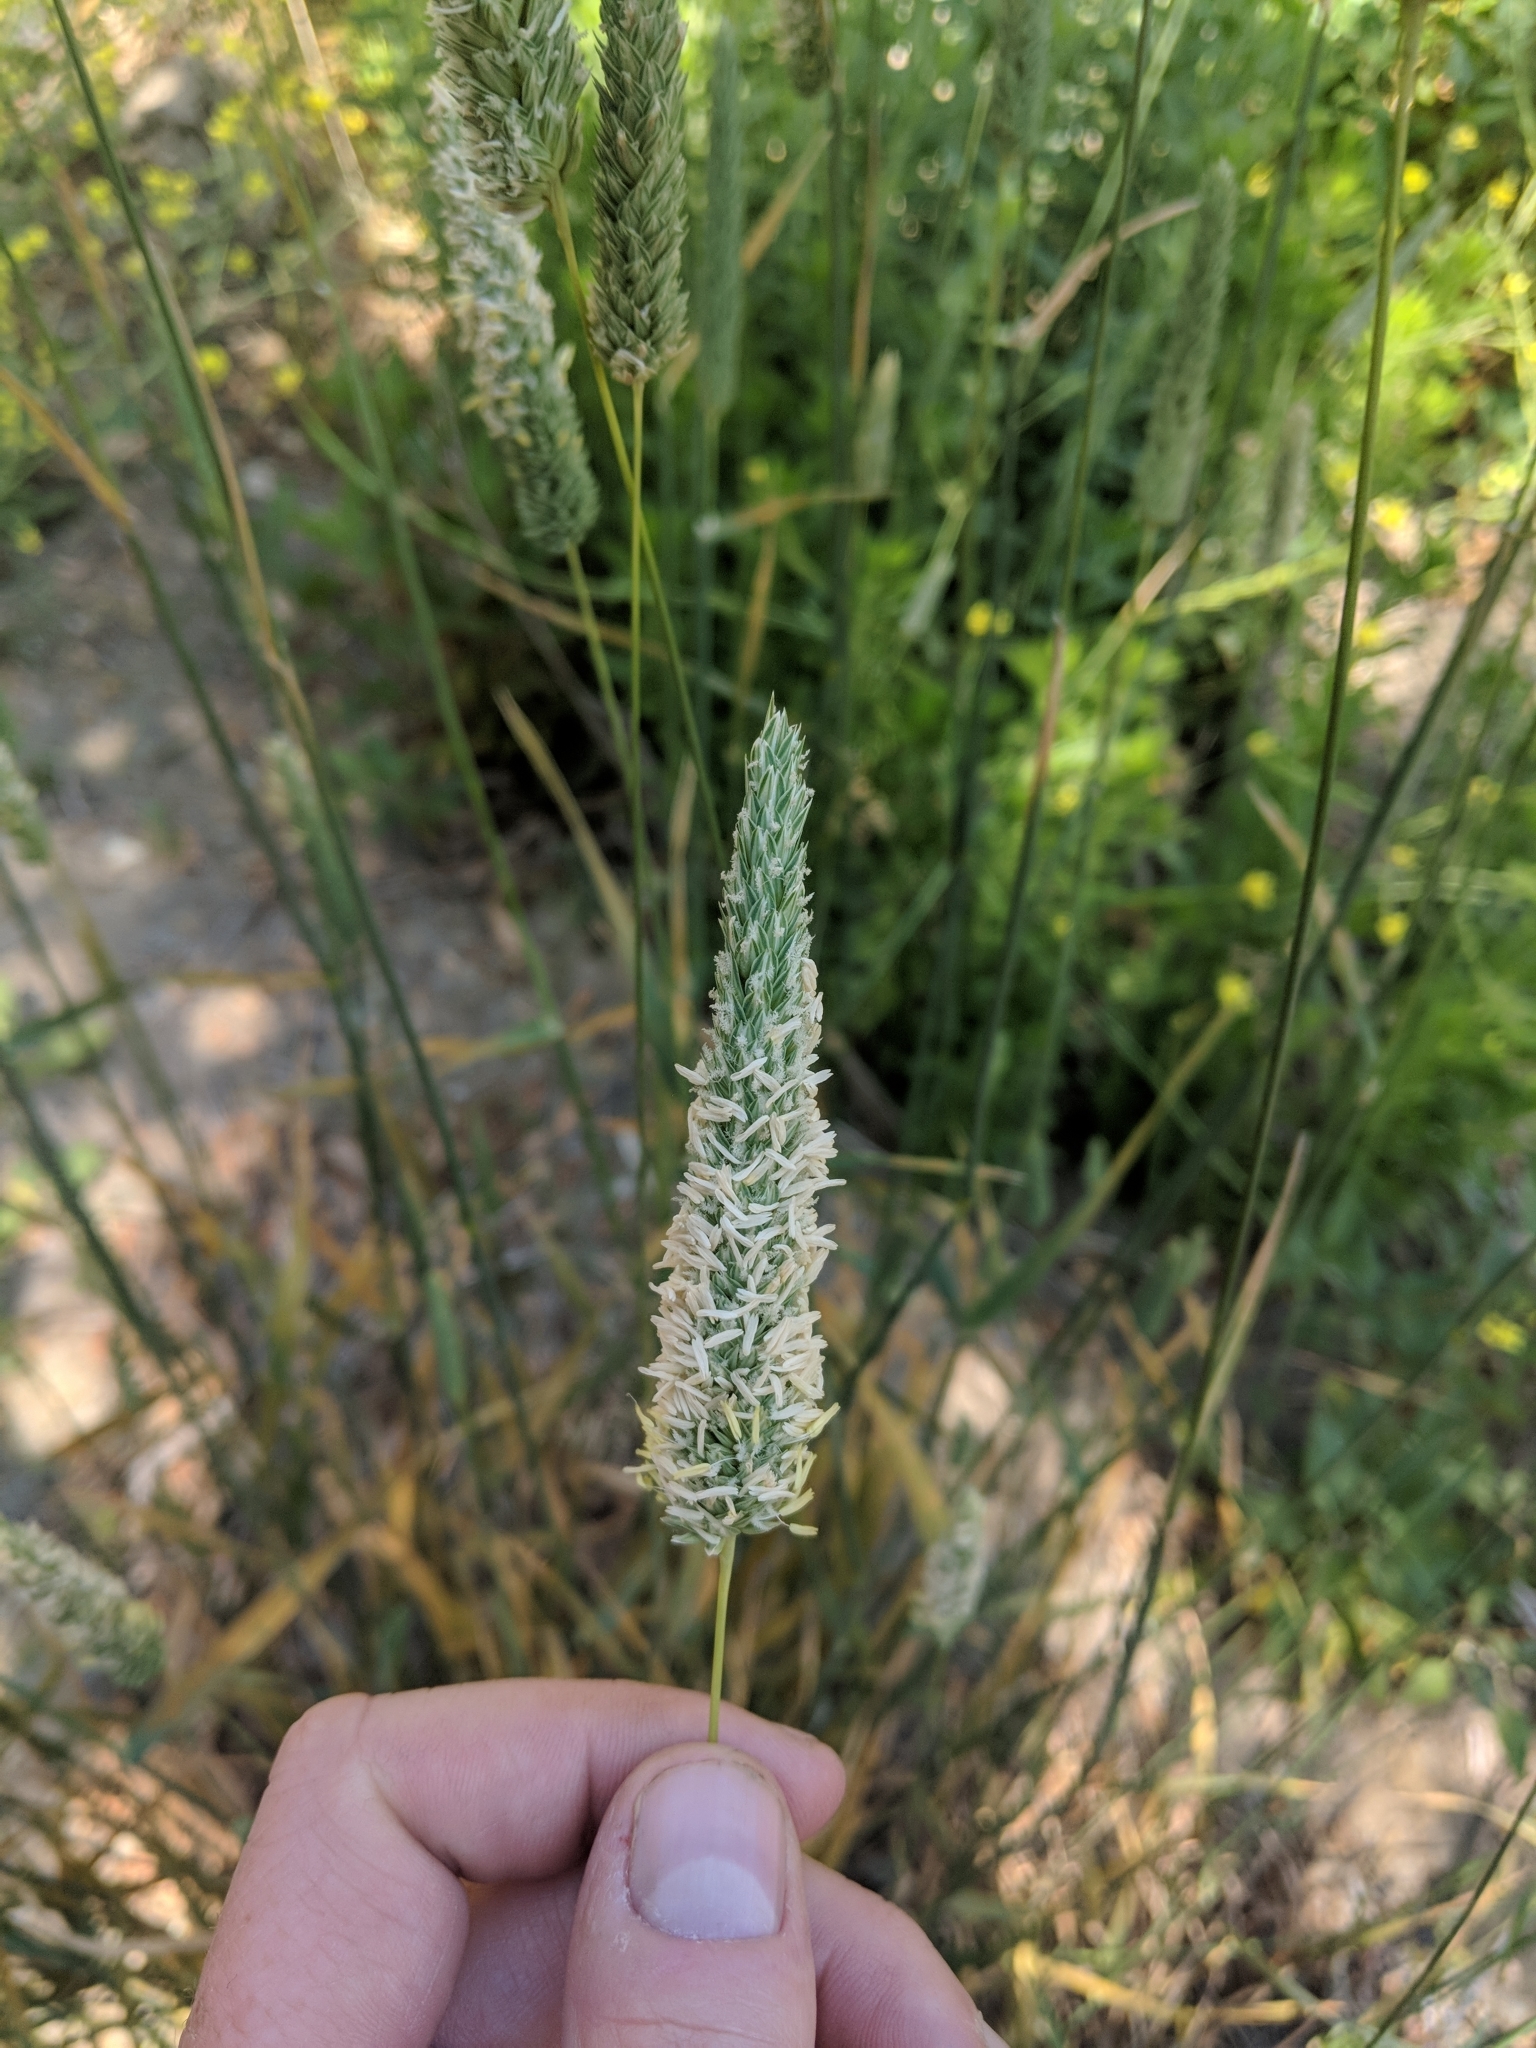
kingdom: Plantae
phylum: Tracheophyta
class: Liliopsida
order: Poales
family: Poaceae
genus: Phalaris
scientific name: Phalaris aquatica
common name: Bulbous canary-grass
